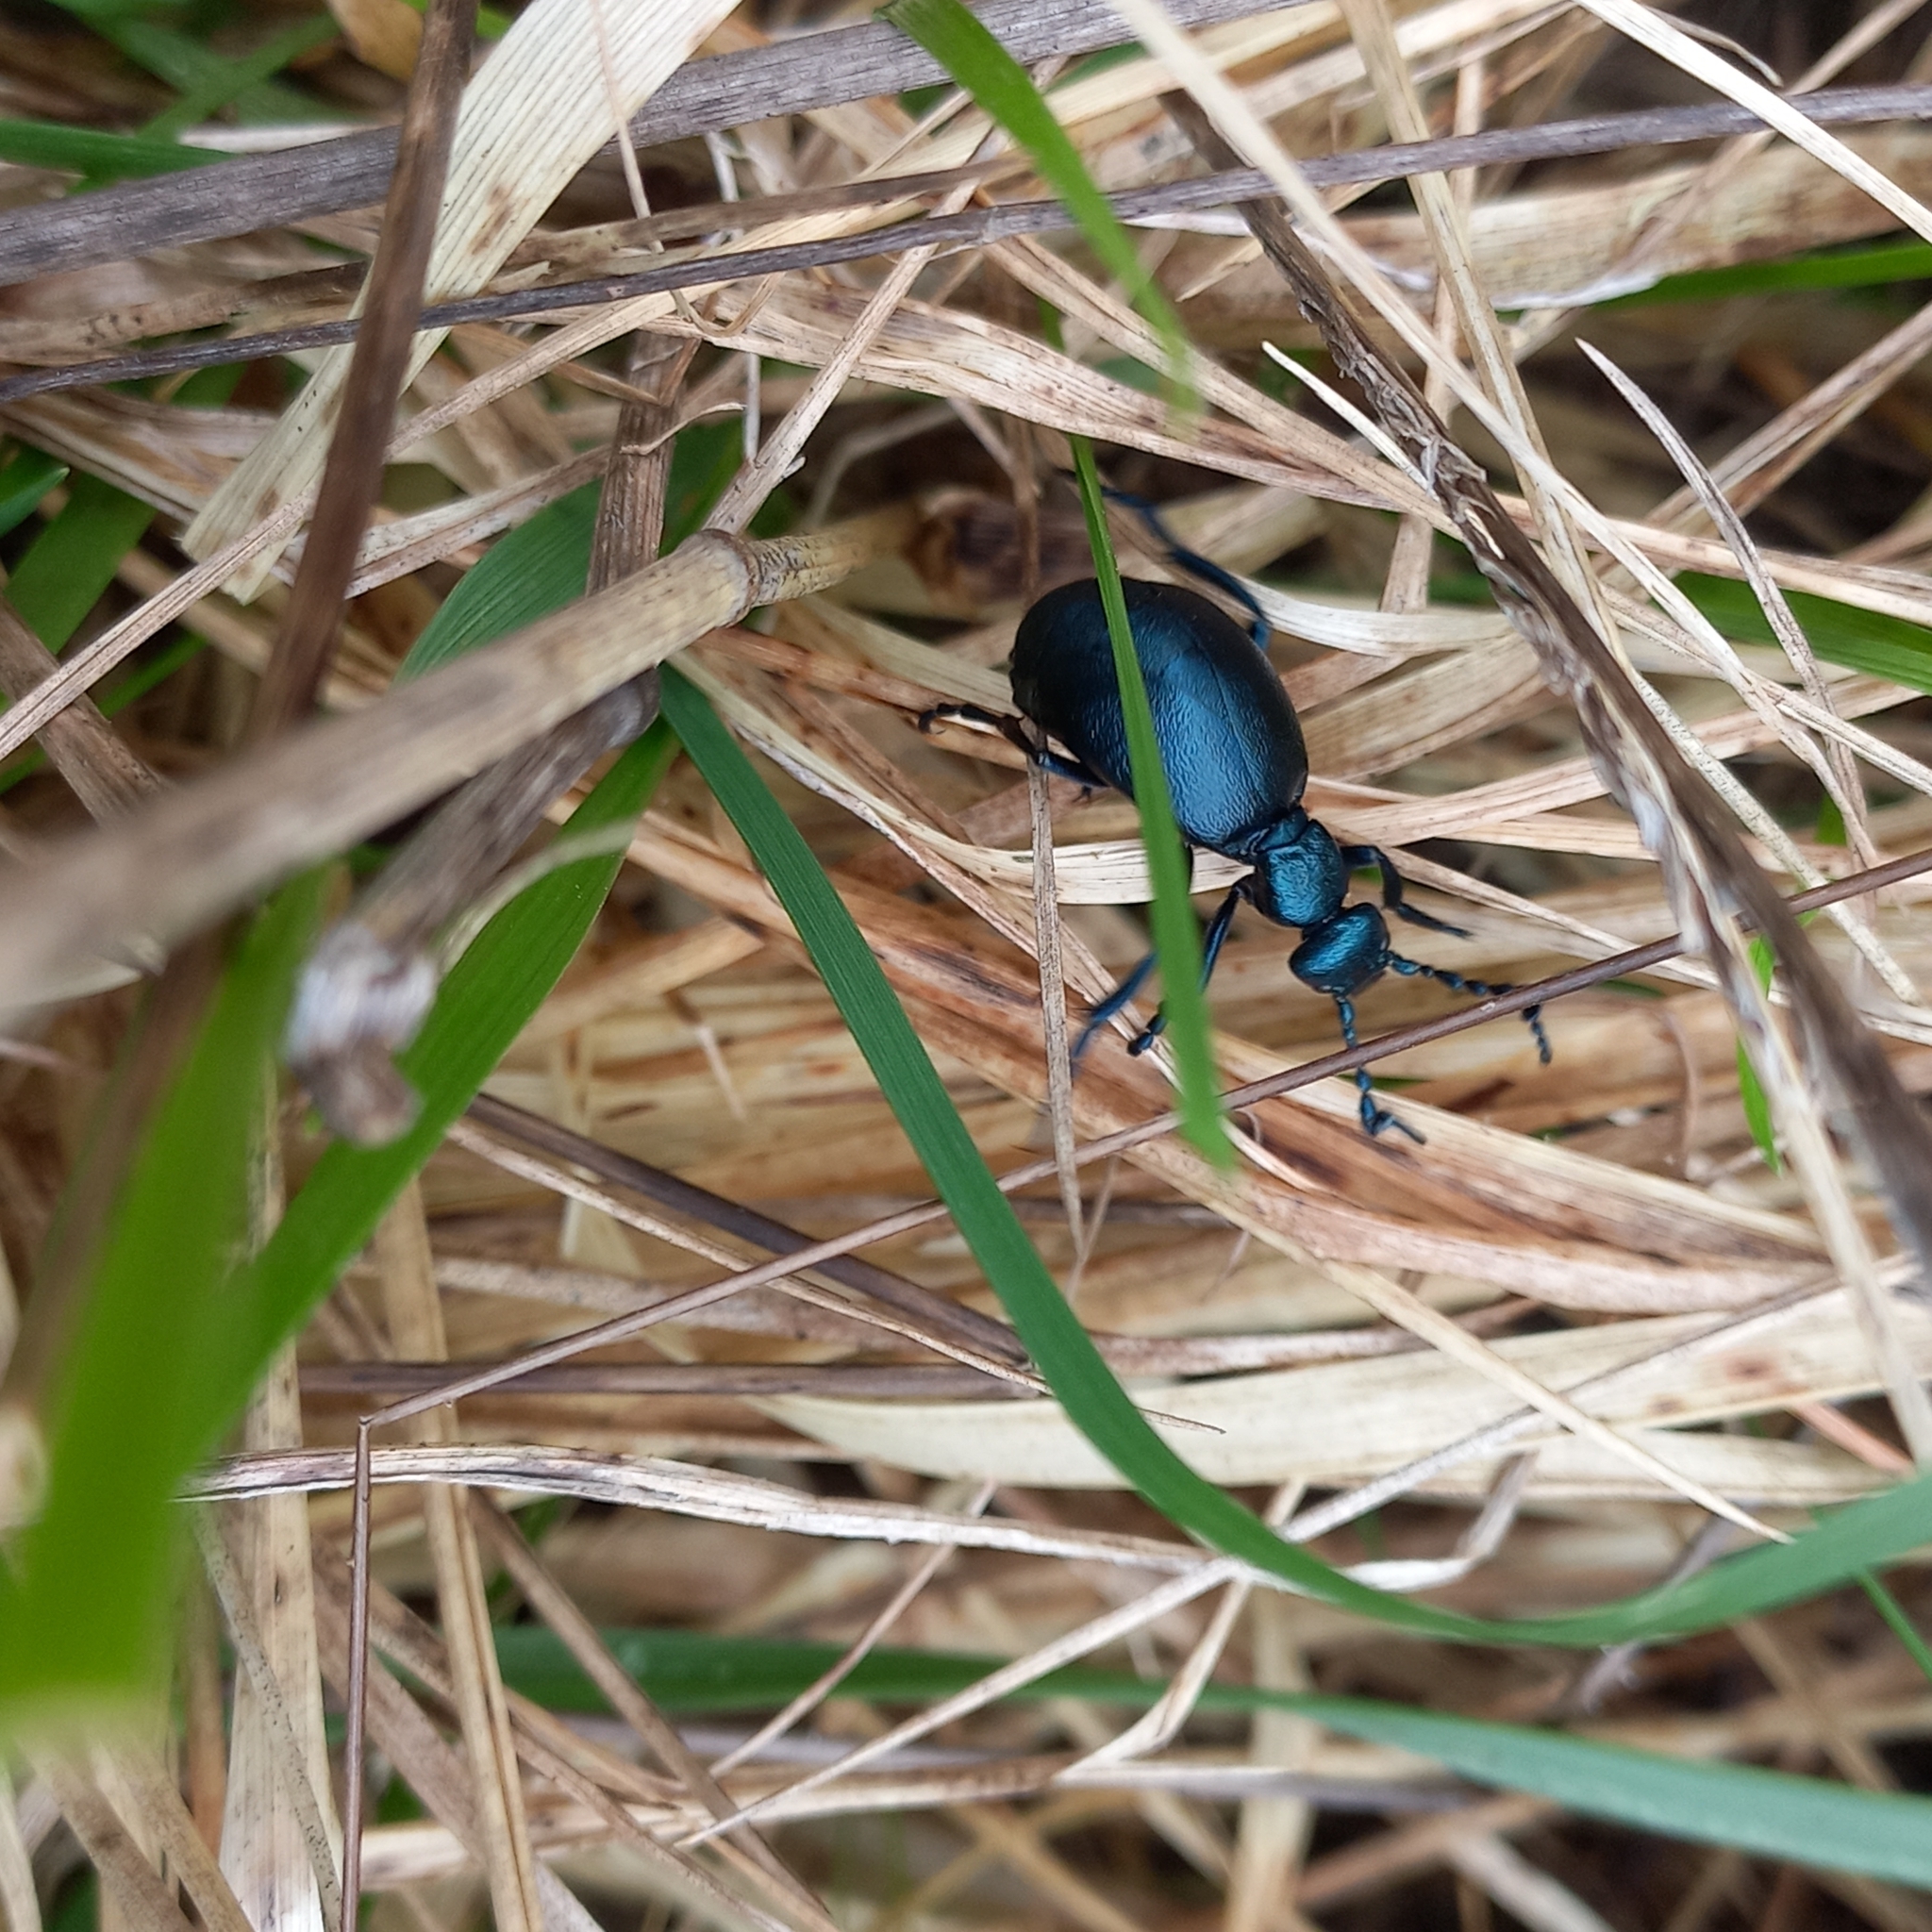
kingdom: Animalia
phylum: Arthropoda
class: Insecta
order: Coleoptera
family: Meloidae
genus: Meloe
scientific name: Meloe violaceus
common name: Violet oil-beetle
